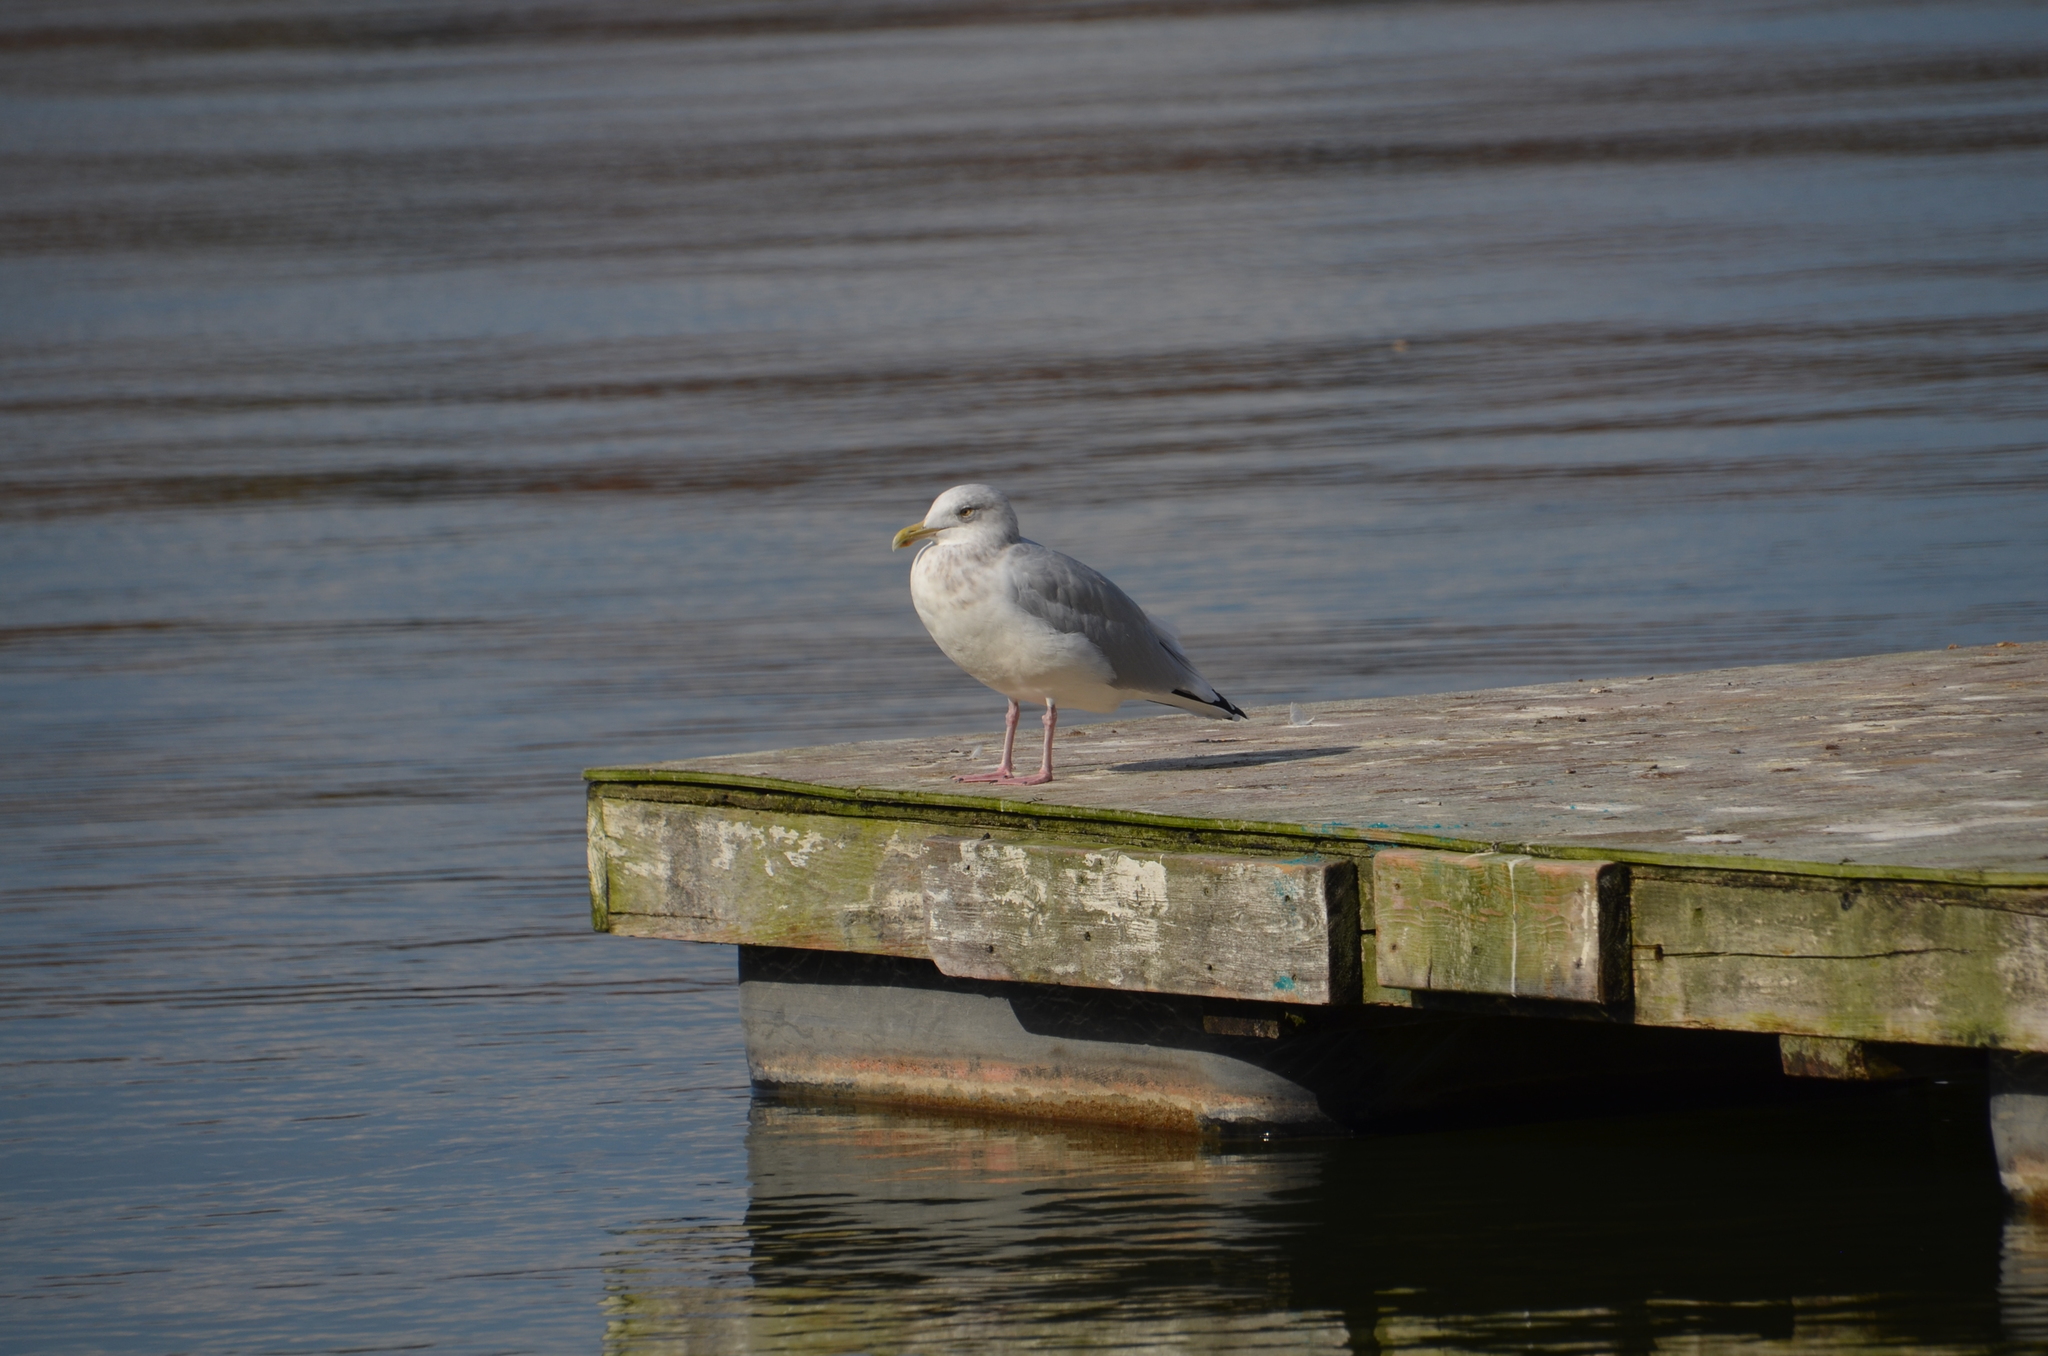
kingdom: Animalia
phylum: Chordata
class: Aves
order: Charadriiformes
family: Laridae
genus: Larus
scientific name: Larus argentatus
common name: Herring gull
